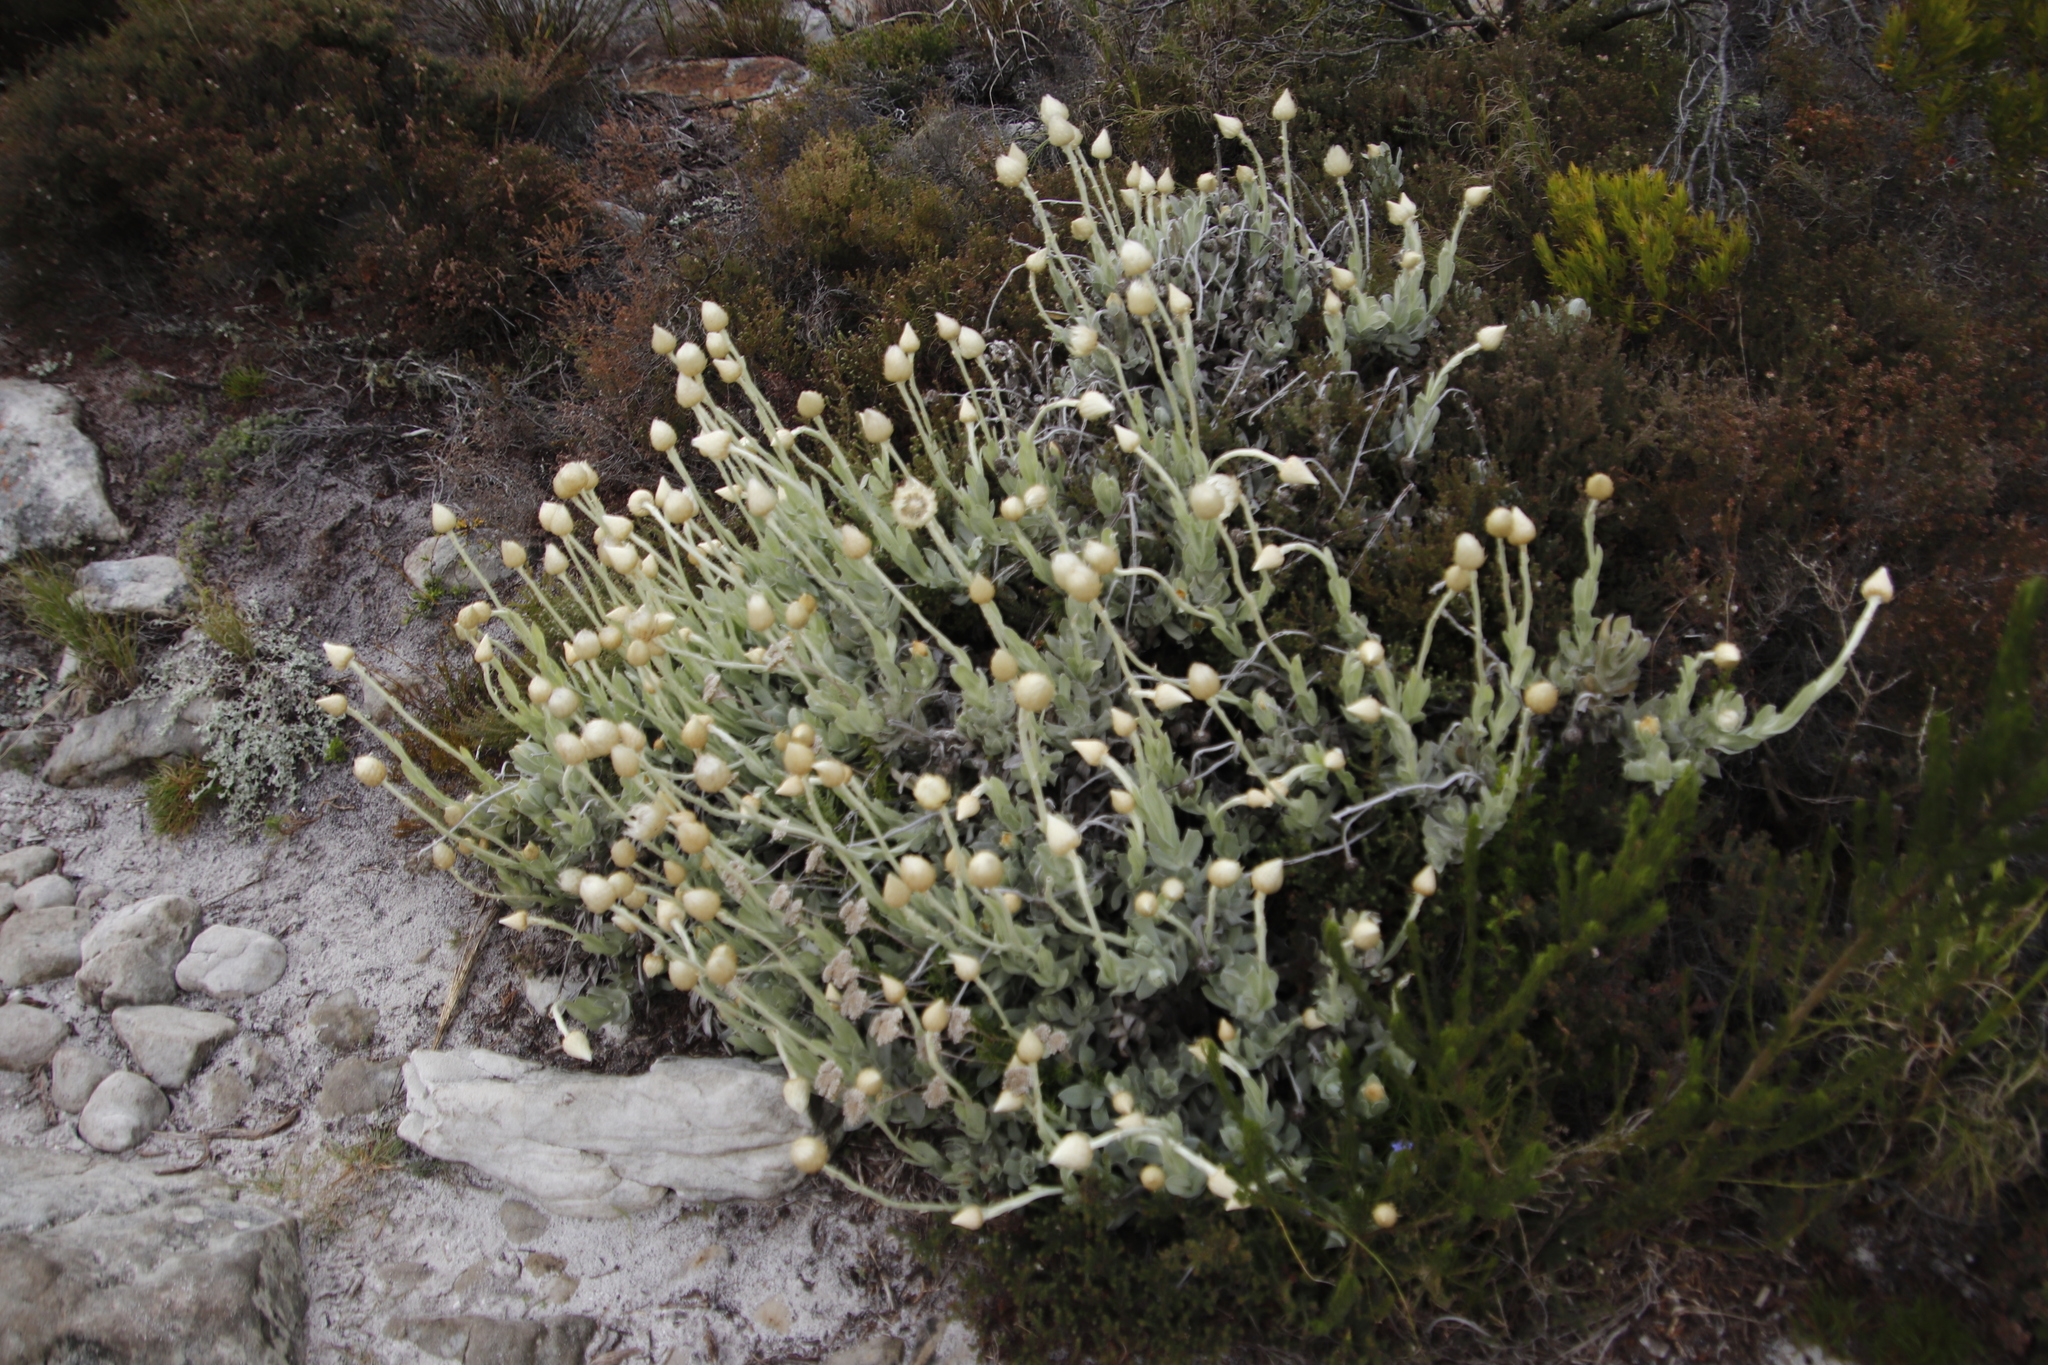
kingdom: Plantae
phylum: Tracheophyta
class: Magnoliopsida
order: Asterales
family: Asteraceae
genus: Syncarpha
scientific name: Syncarpha speciosissima
